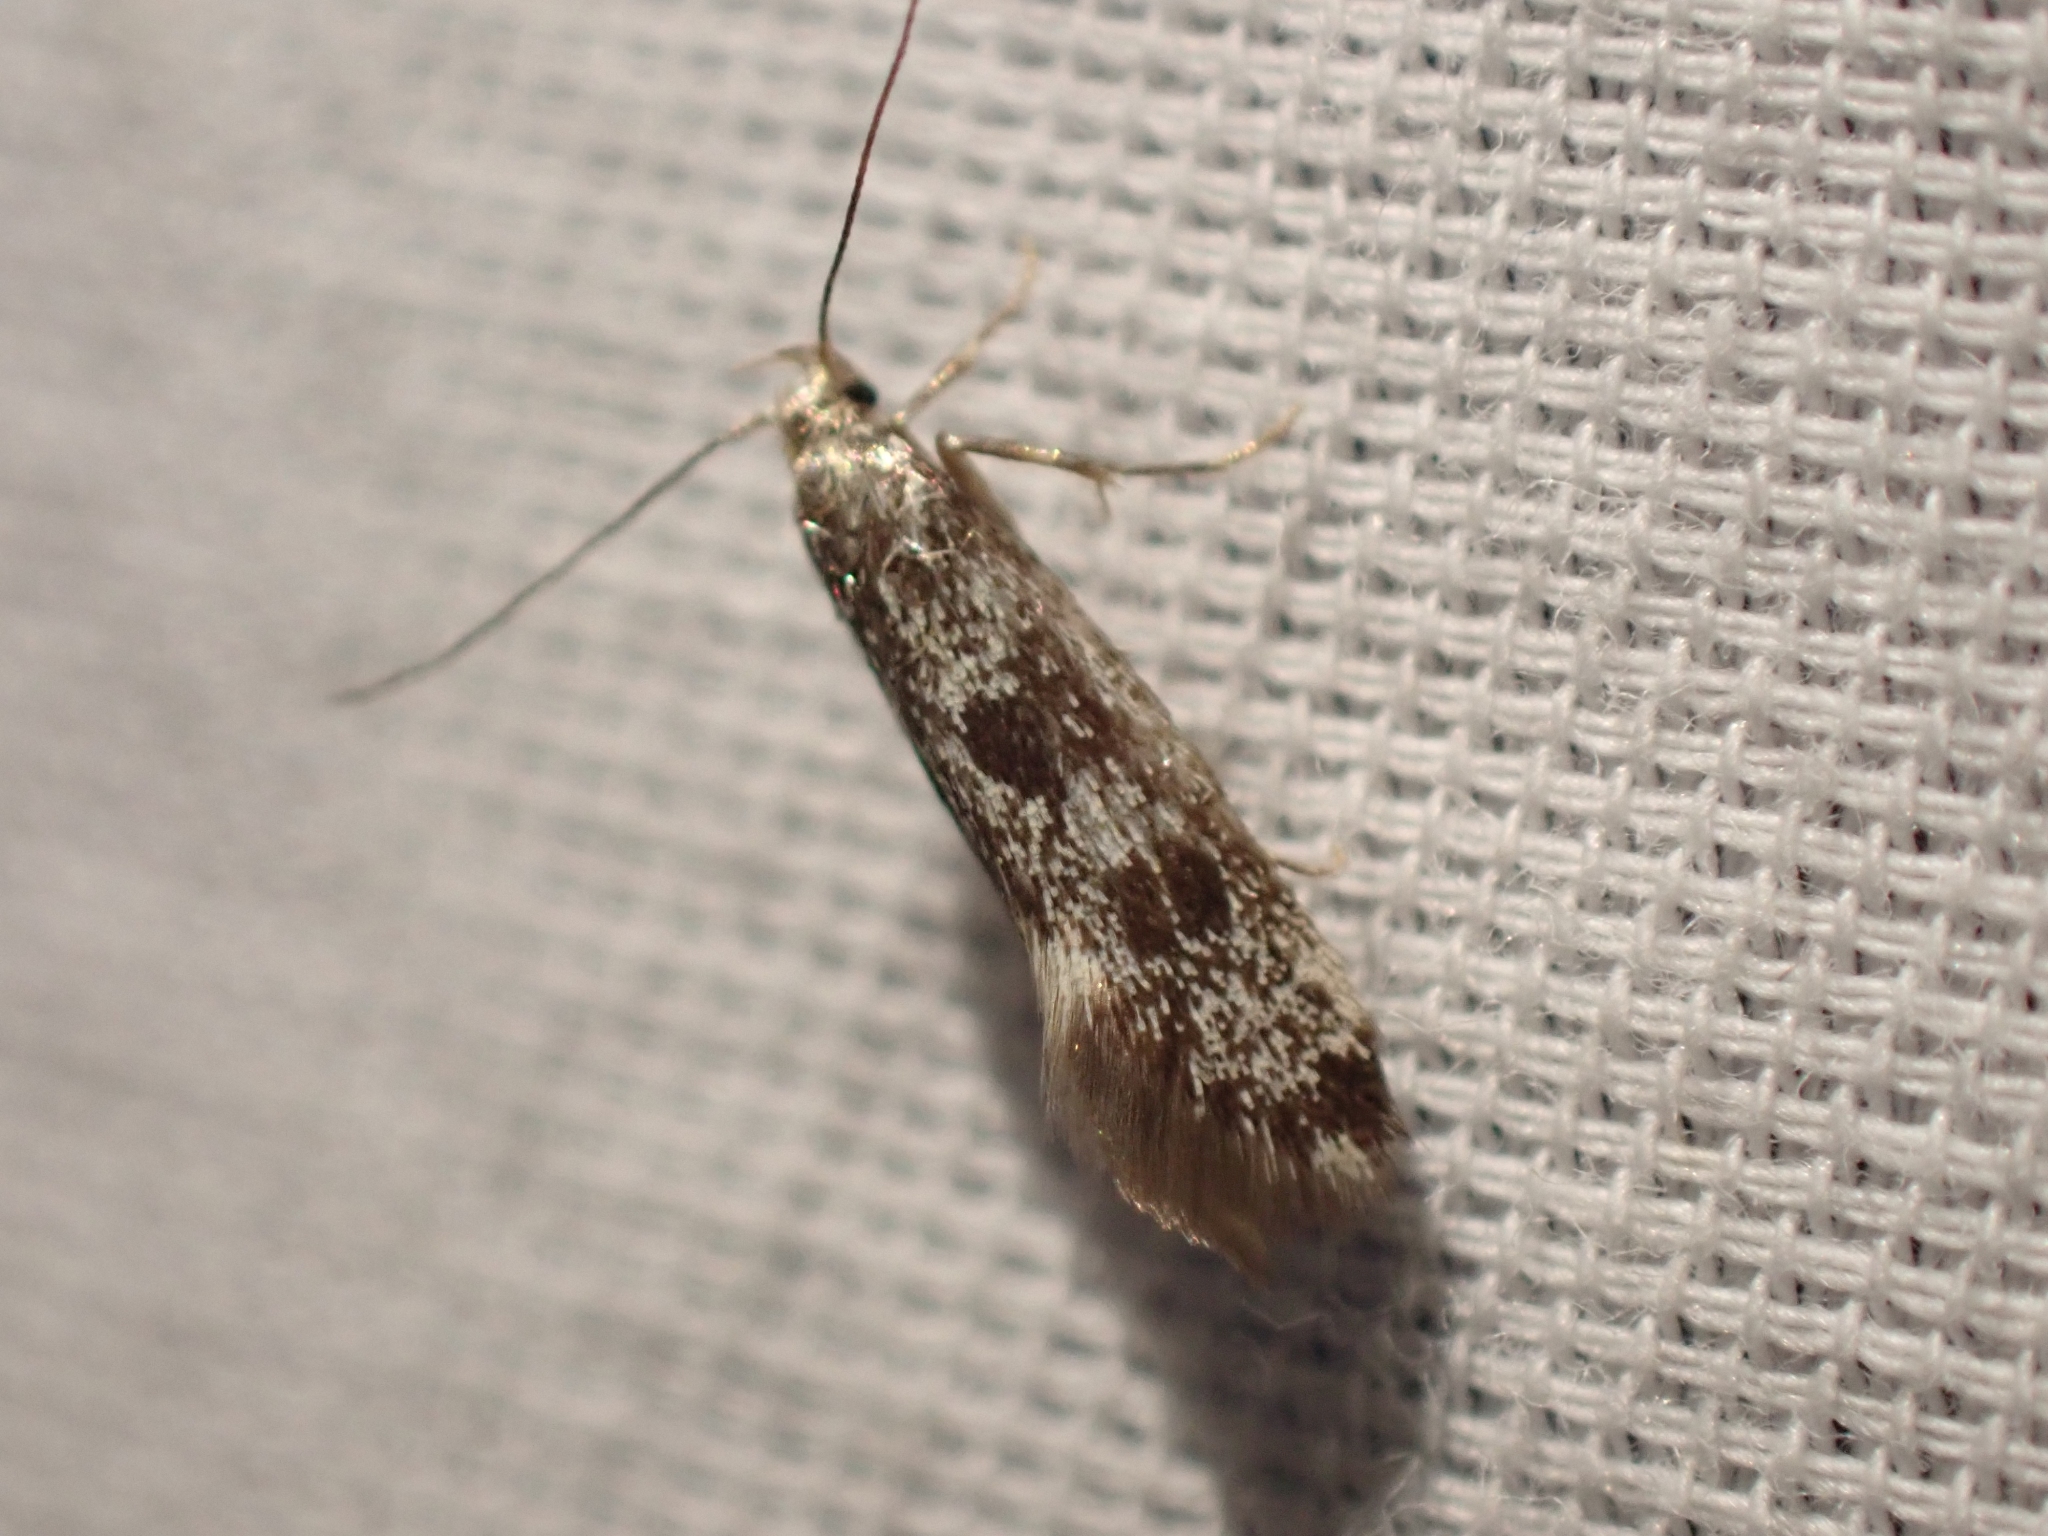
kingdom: Animalia
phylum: Arthropoda
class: Insecta
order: Lepidoptera
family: Oecophoridae
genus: Denisia
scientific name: Denisia haydenella
